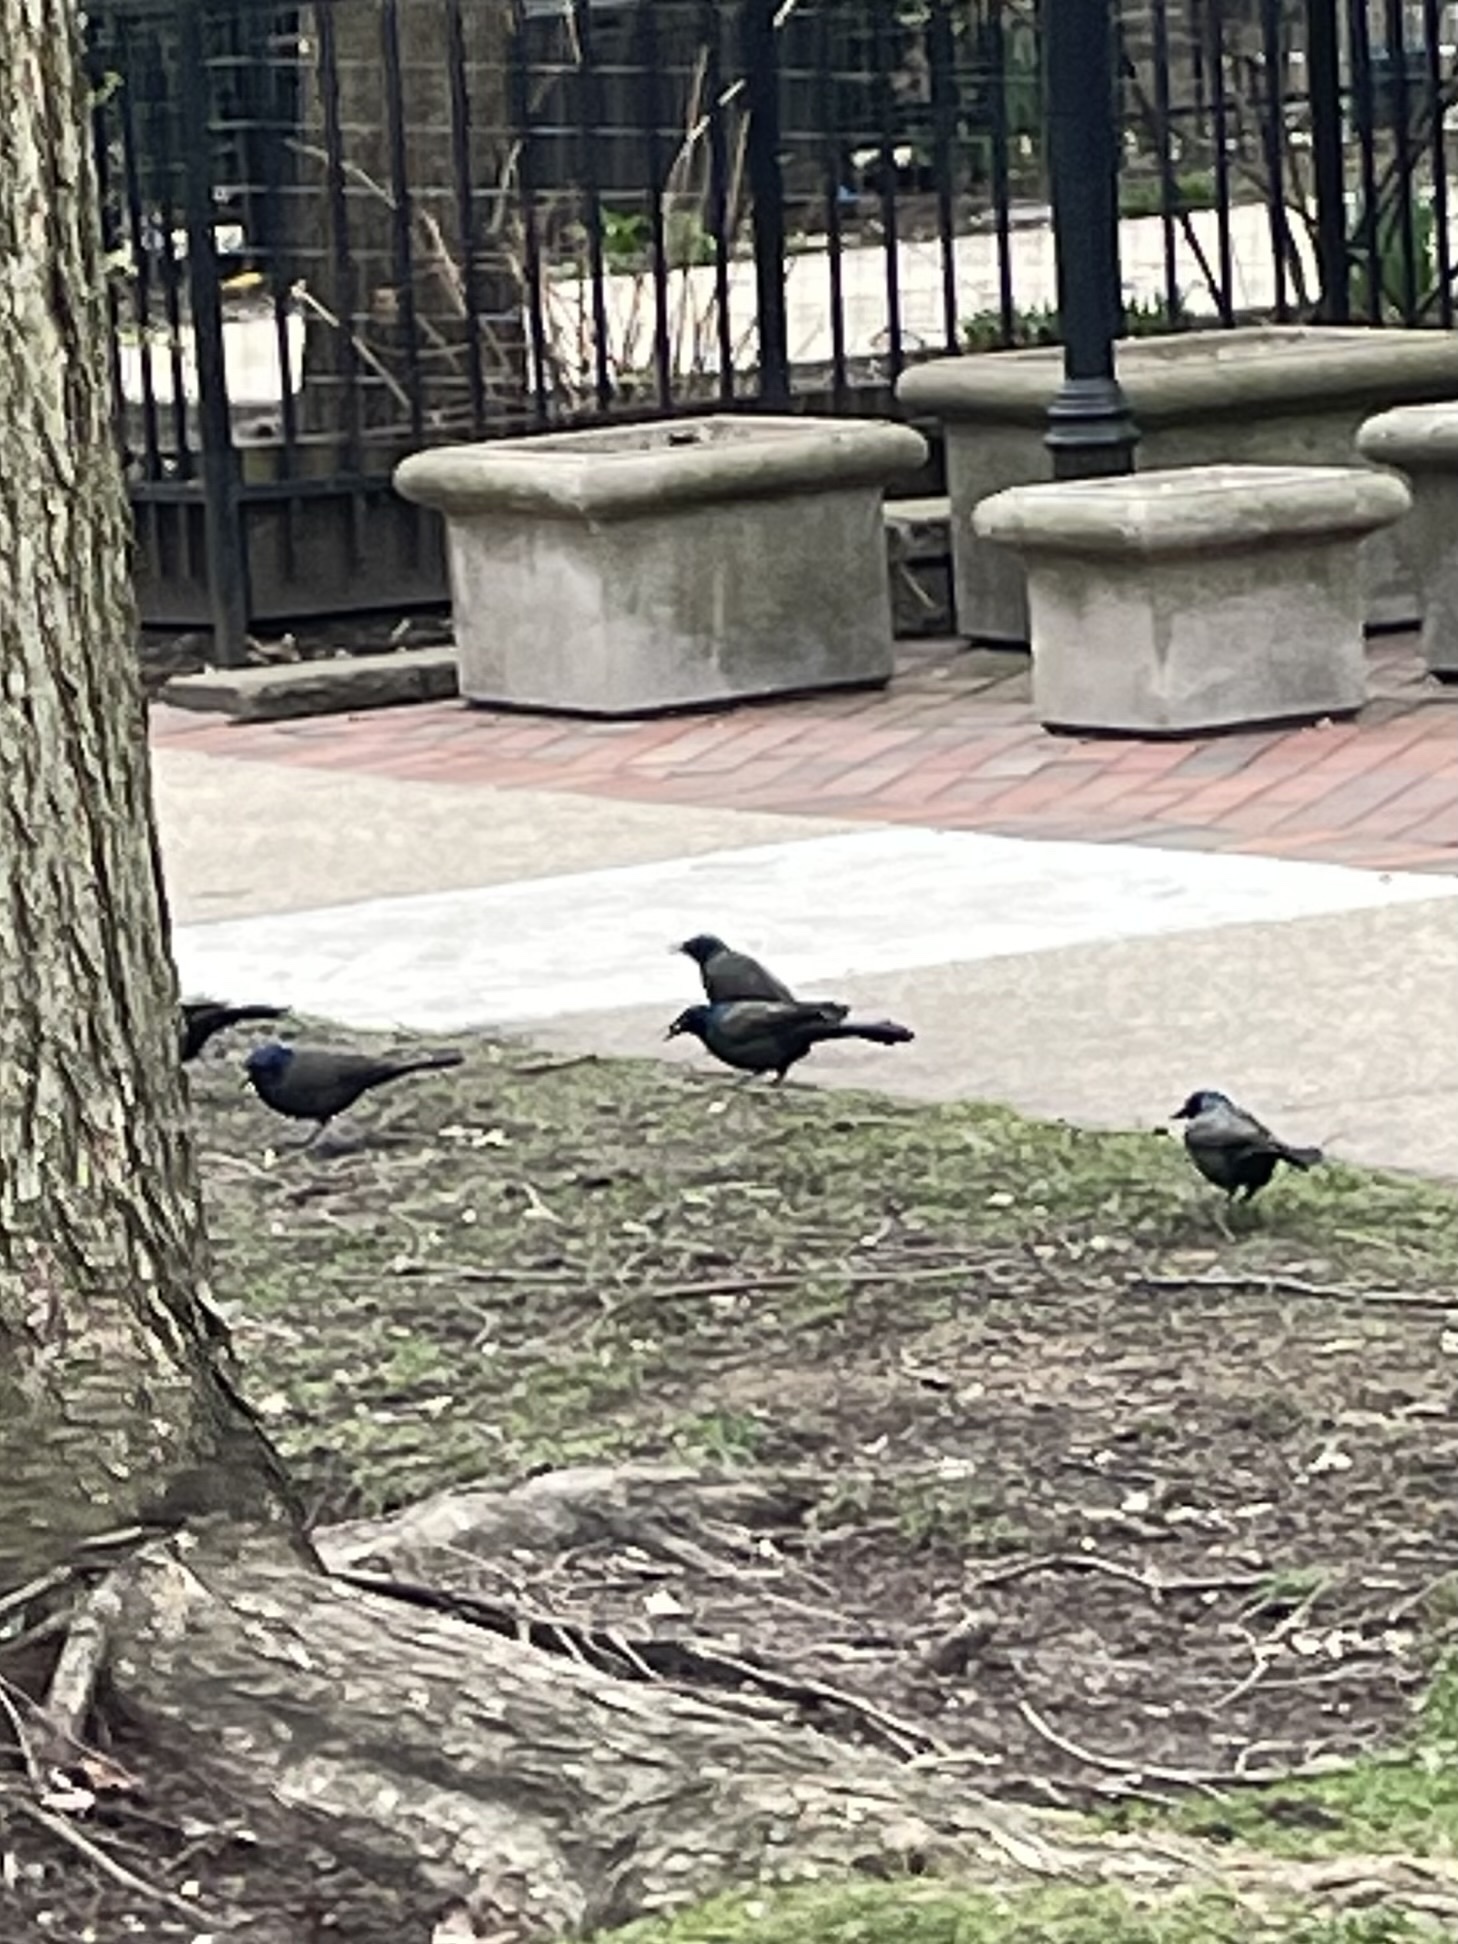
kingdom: Animalia
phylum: Chordata
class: Aves
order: Passeriformes
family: Icteridae
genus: Quiscalus
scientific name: Quiscalus quiscula
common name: Common grackle
